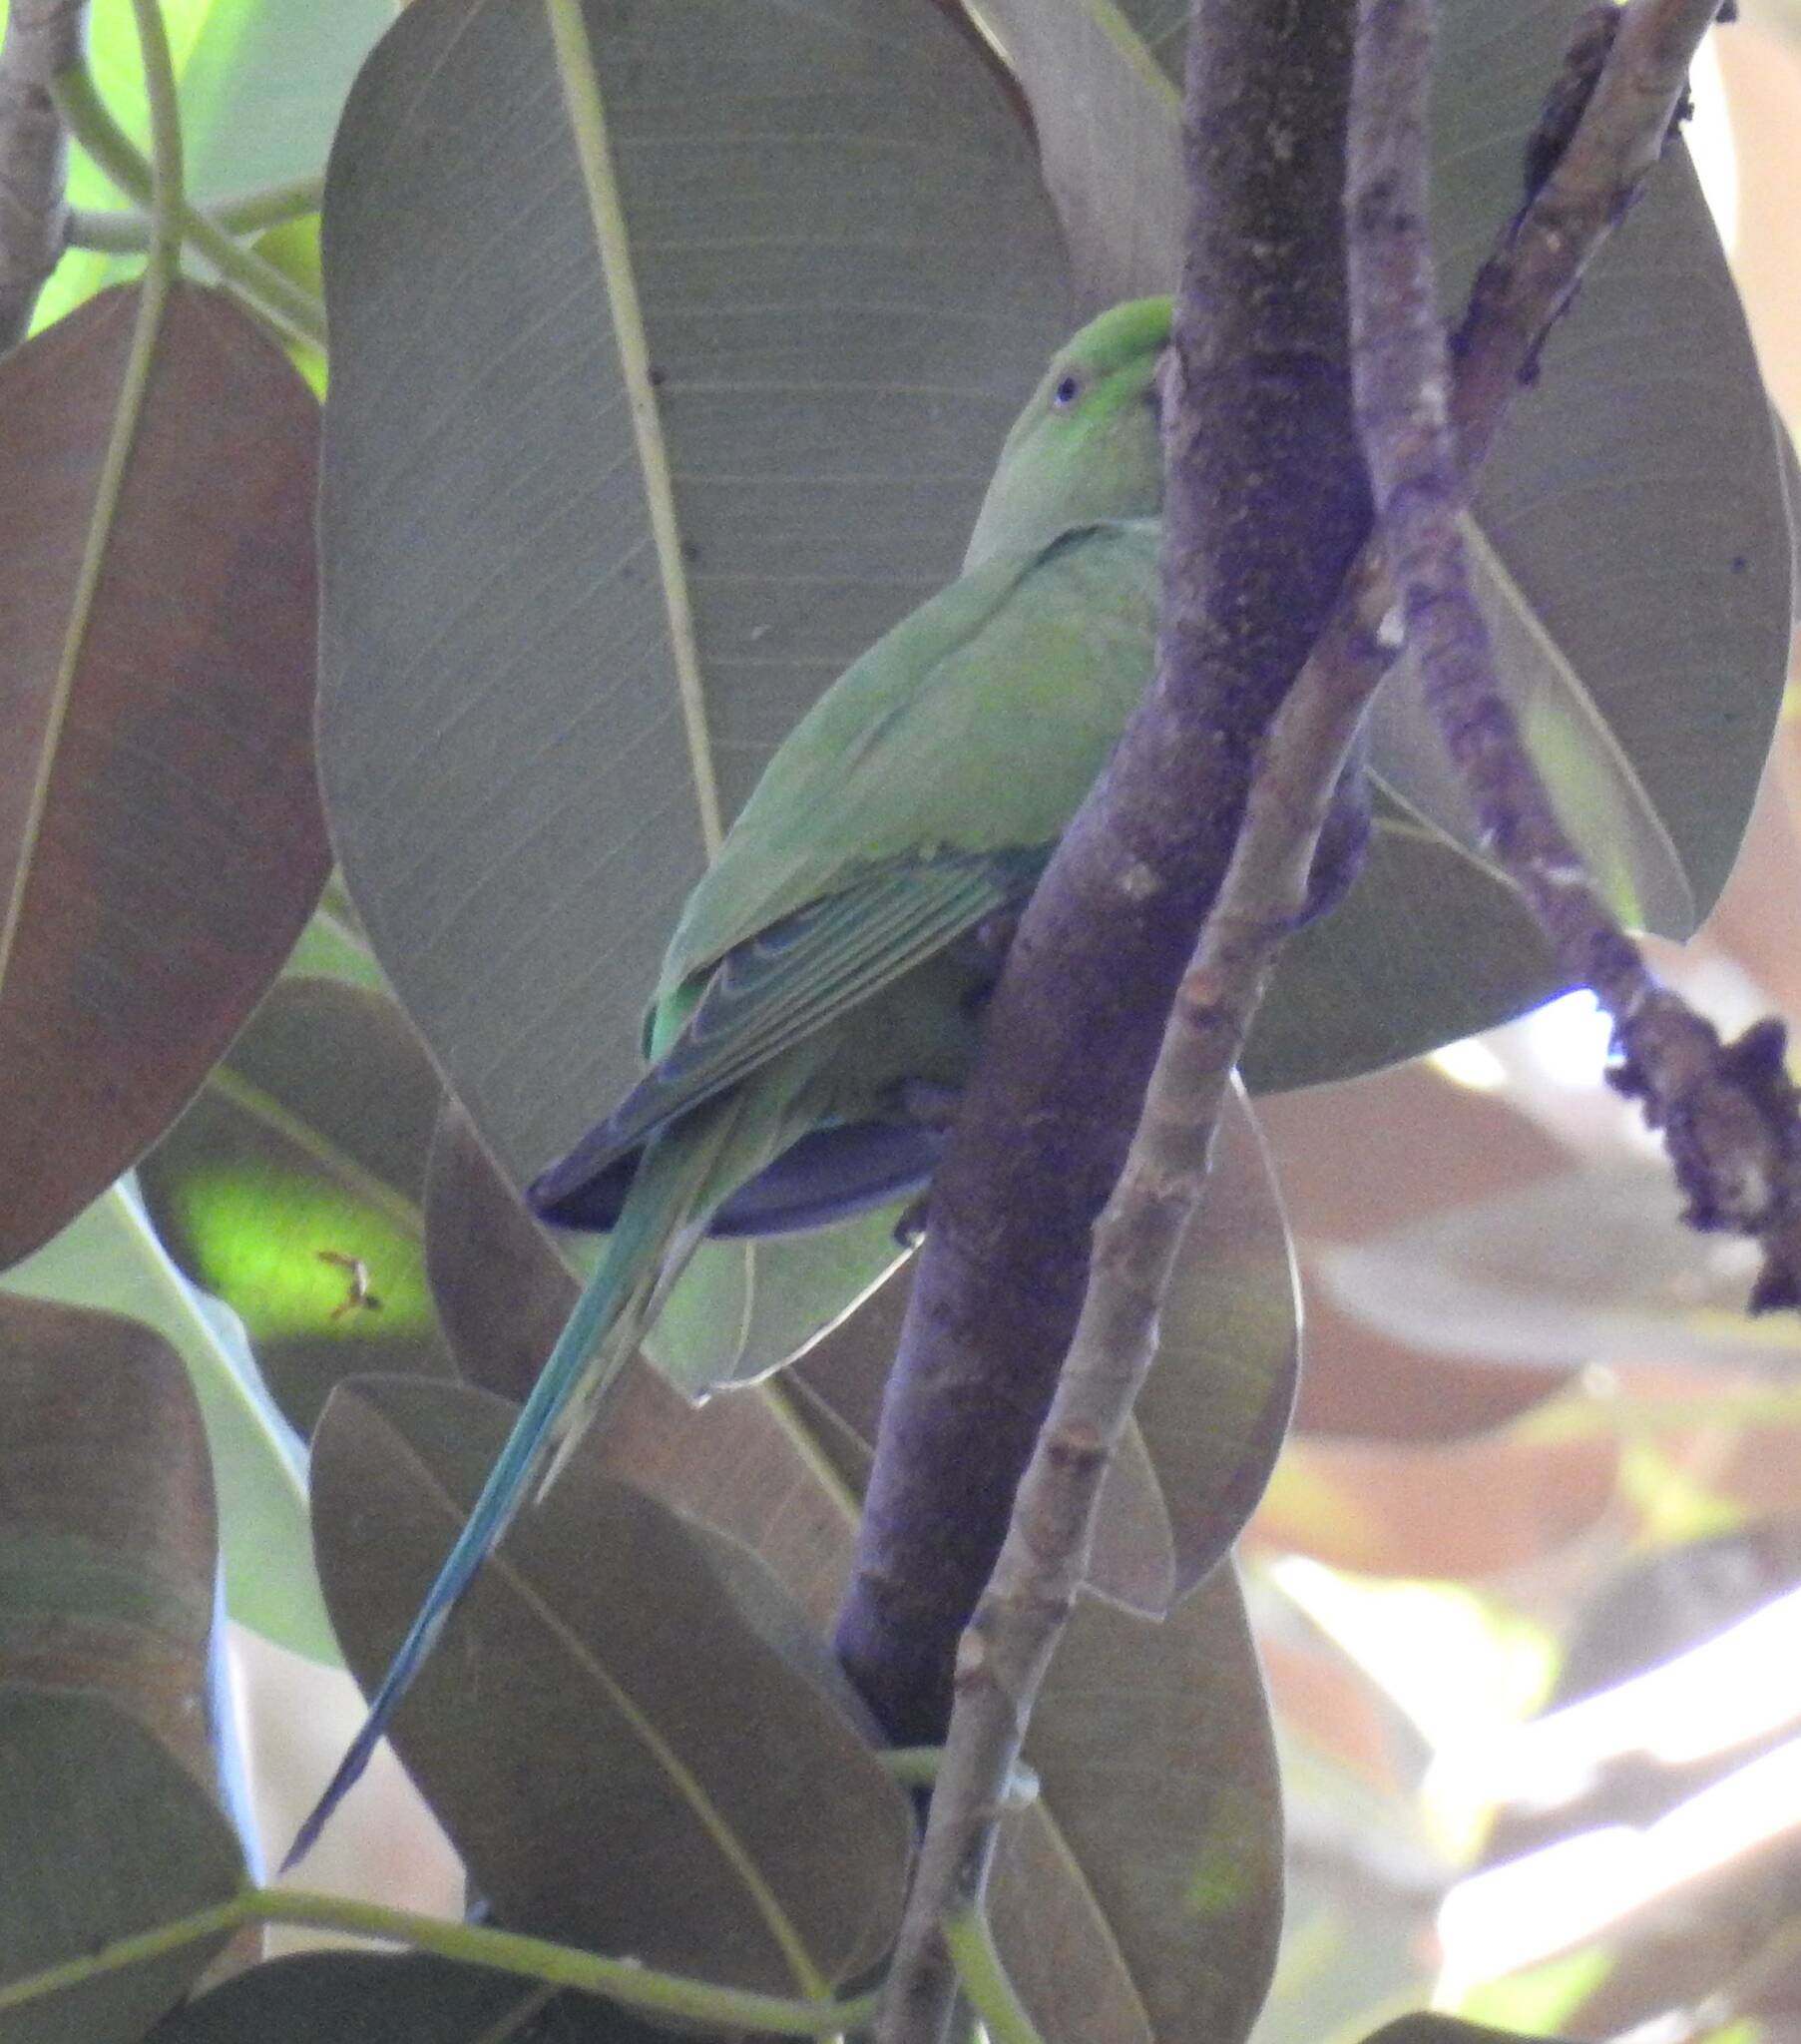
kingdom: Animalia
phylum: Chordata
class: Aves
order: Psittaciformes
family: Psittacidae
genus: Psittacula
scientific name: Psittacula krameri
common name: Rose-ringed parakeet
